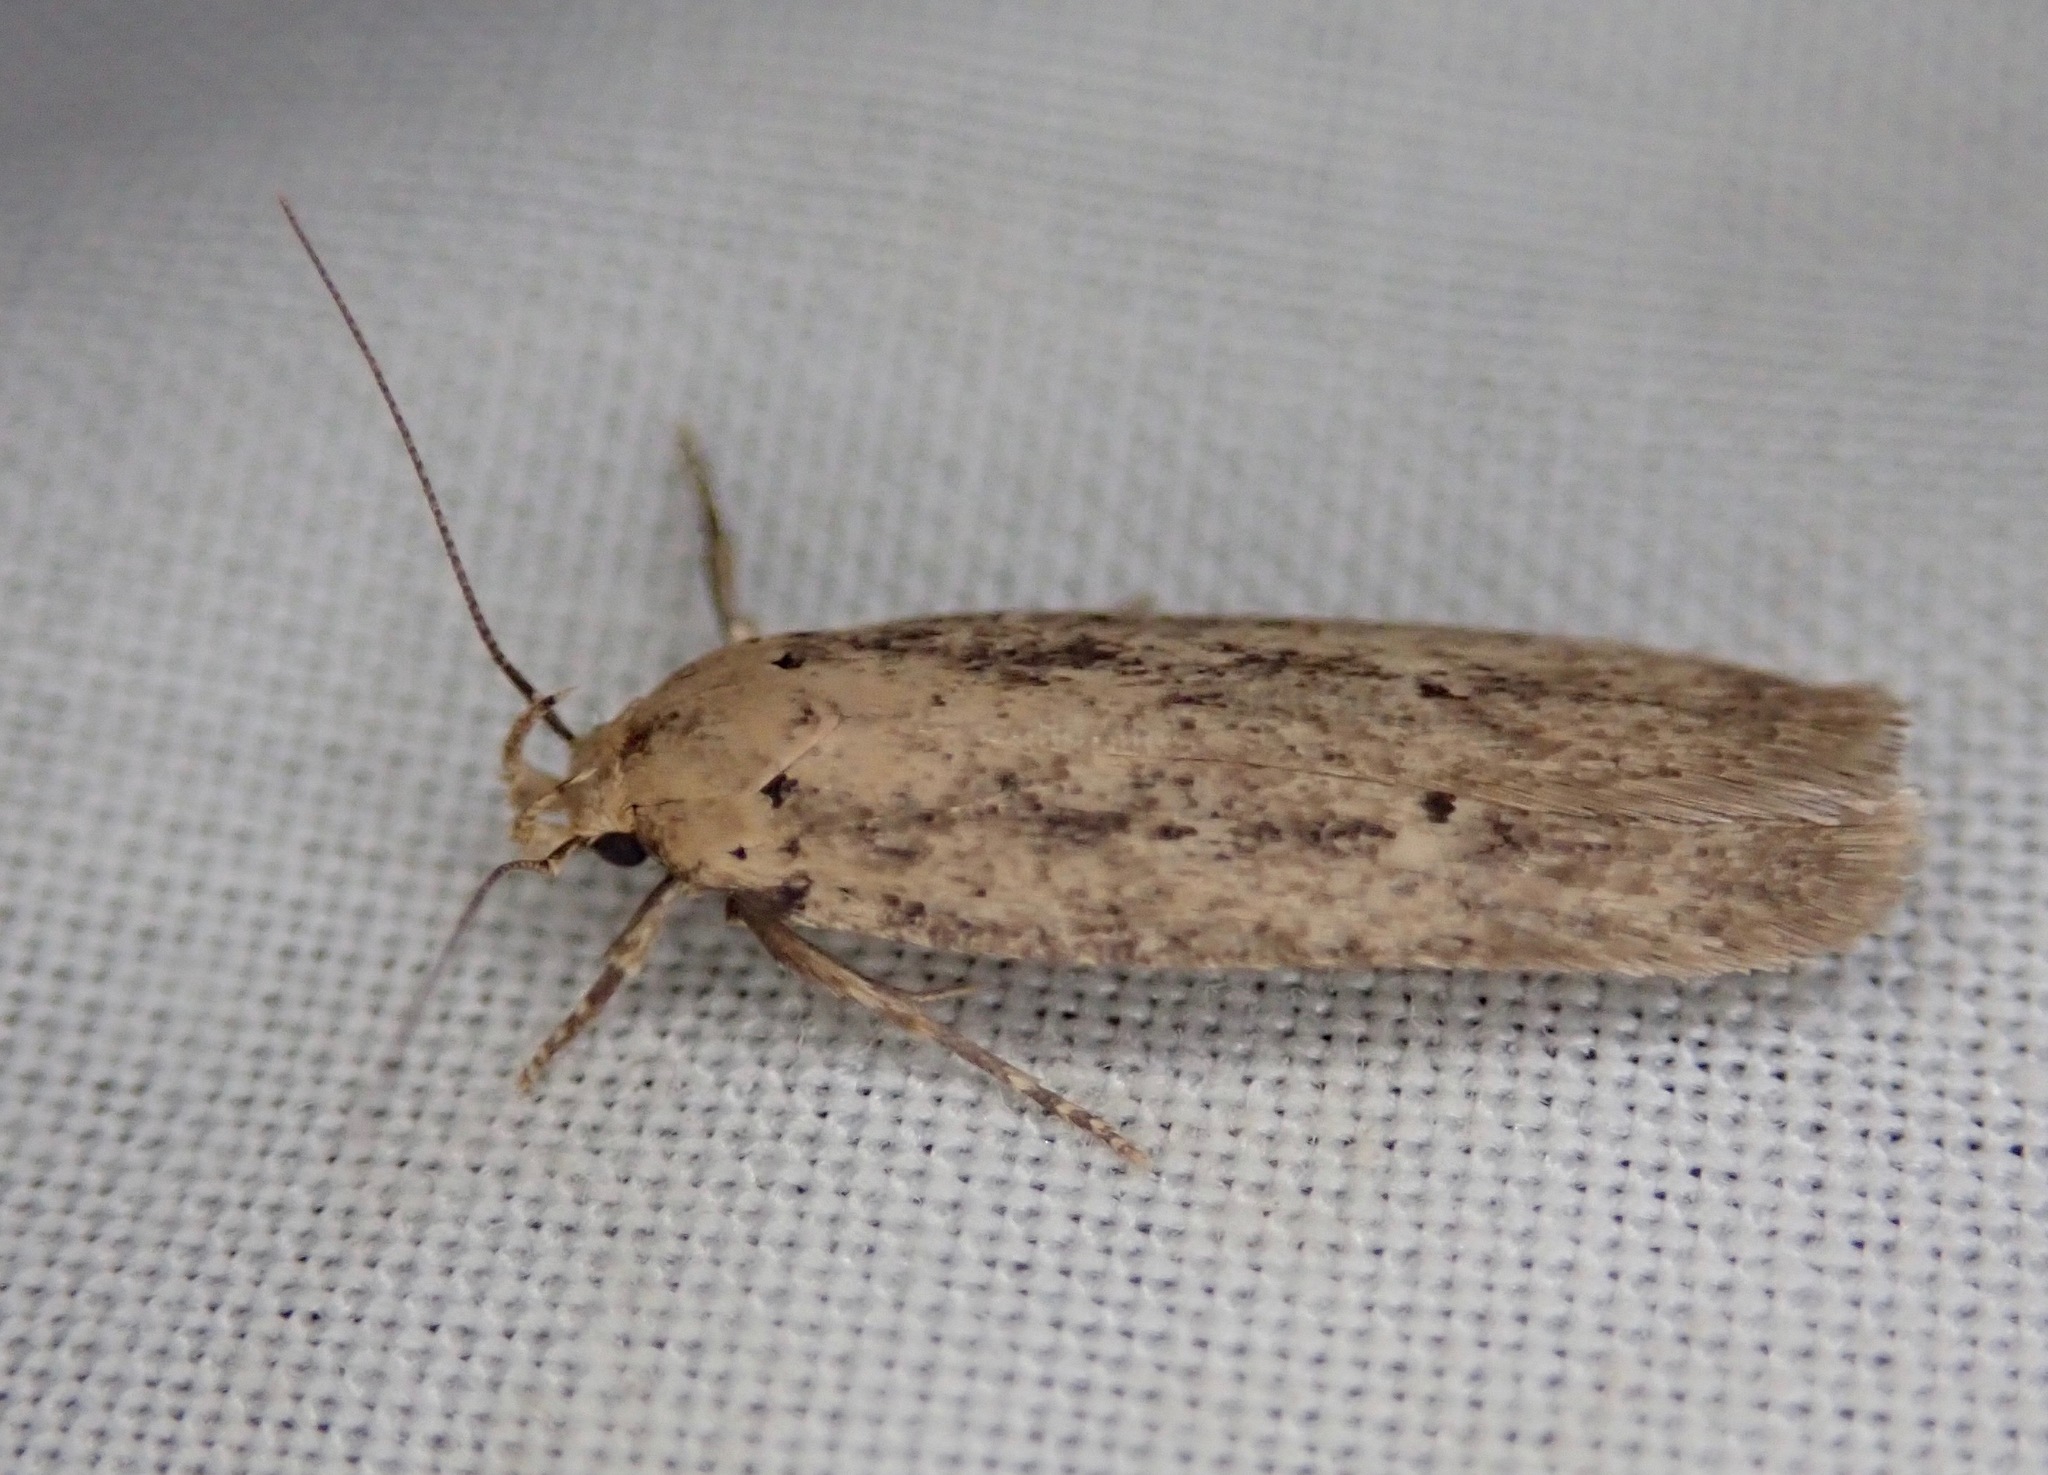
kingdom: Animalia
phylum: Arthropoda
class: Insecta
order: Lepidoptera
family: Gelechiidae
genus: Platyedra
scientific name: Platyedra subcinerea
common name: Moth
